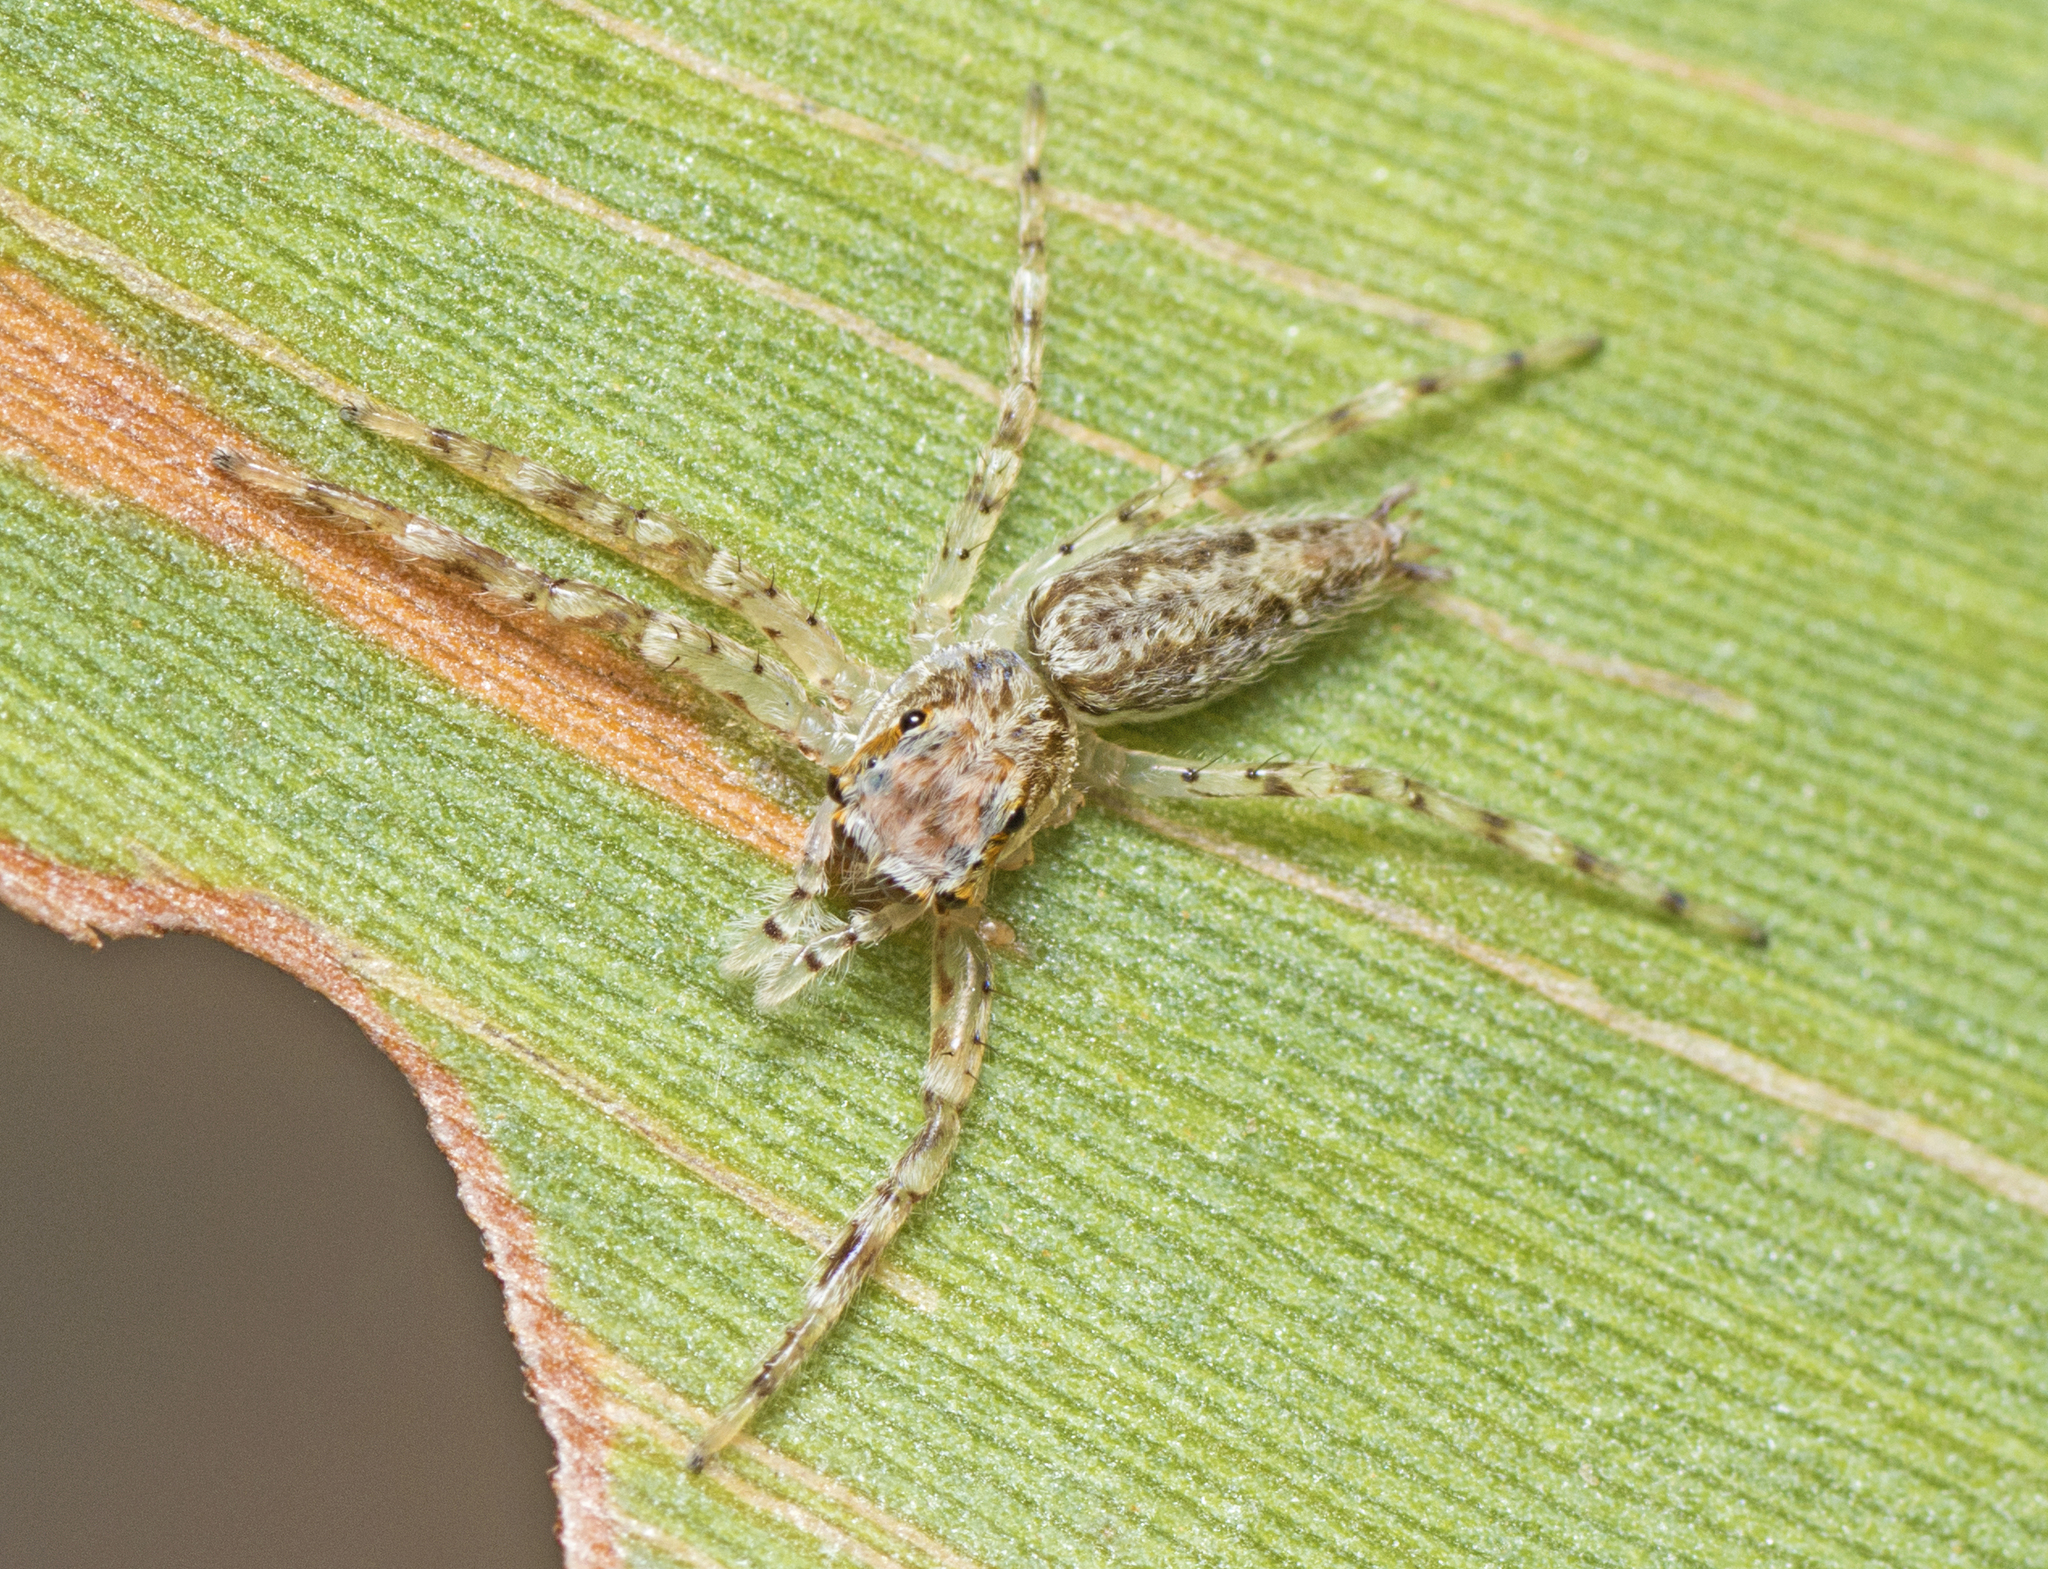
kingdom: Animalia
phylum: Arthropoda
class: Arachnida
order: Araneae
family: Salticidae
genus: Helpis
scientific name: Helpis minitabunda
